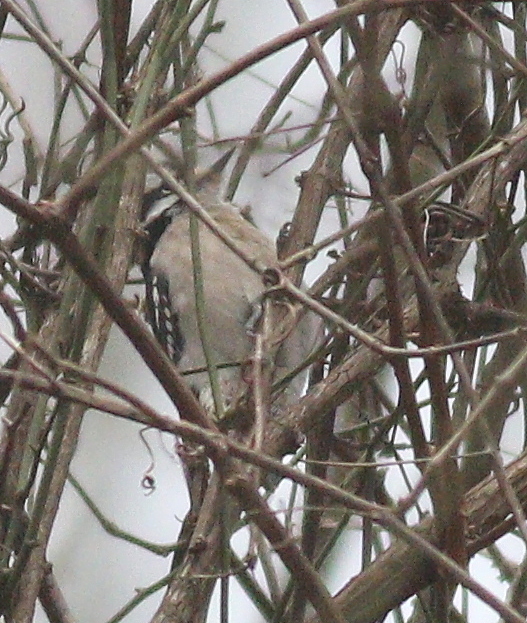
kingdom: Animalia
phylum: Chordata
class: Aves
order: Piciformes
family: Picidae
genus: Dryobates
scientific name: Dryobates pubescens
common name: Downy woodpecker
